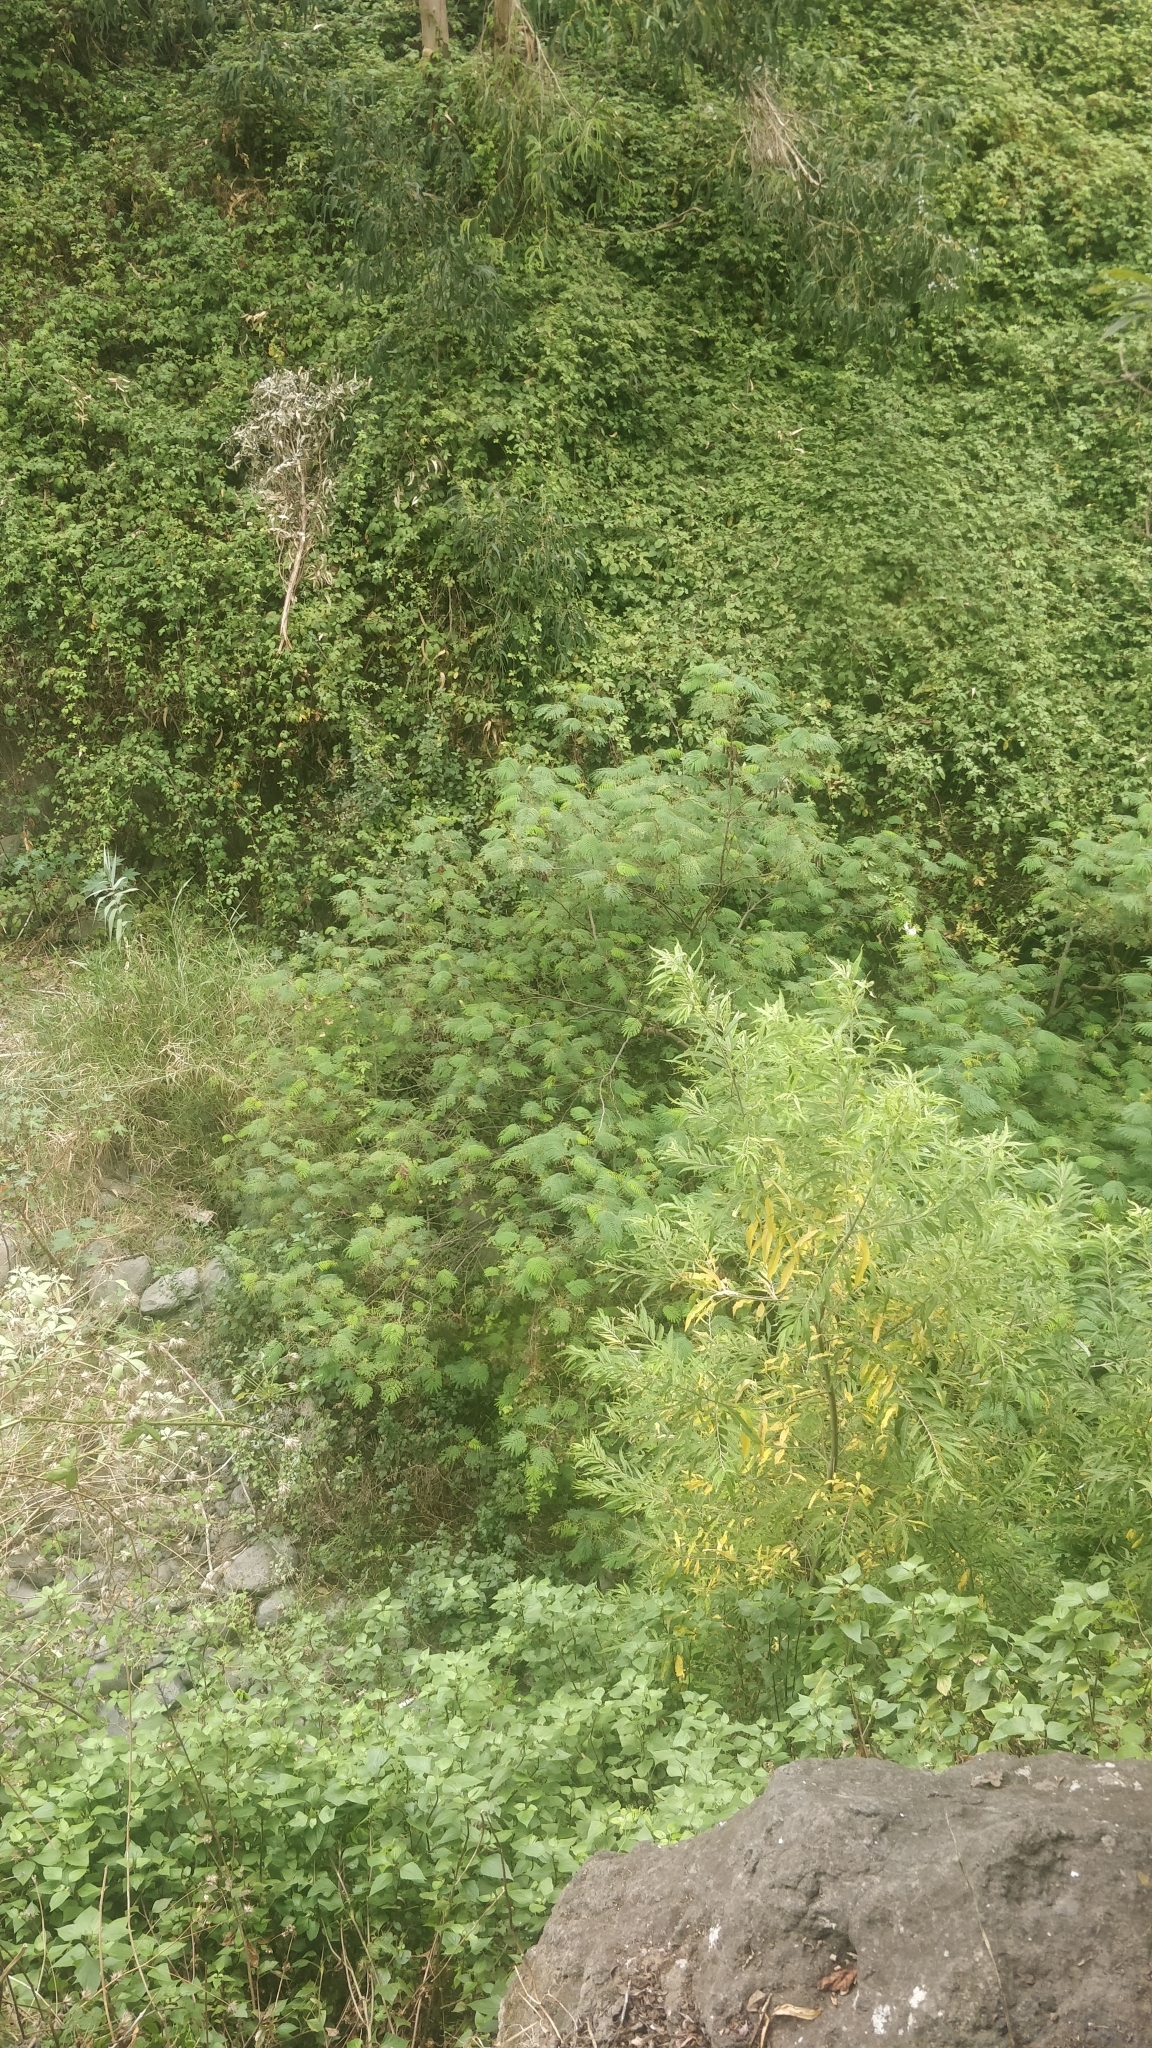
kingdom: Plantae
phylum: Tracheophyta
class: Magnoliopsida
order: Fabales
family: Fabaceae
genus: Paraserianthes
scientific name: Paraserianthes lophantha
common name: Plume albizia
